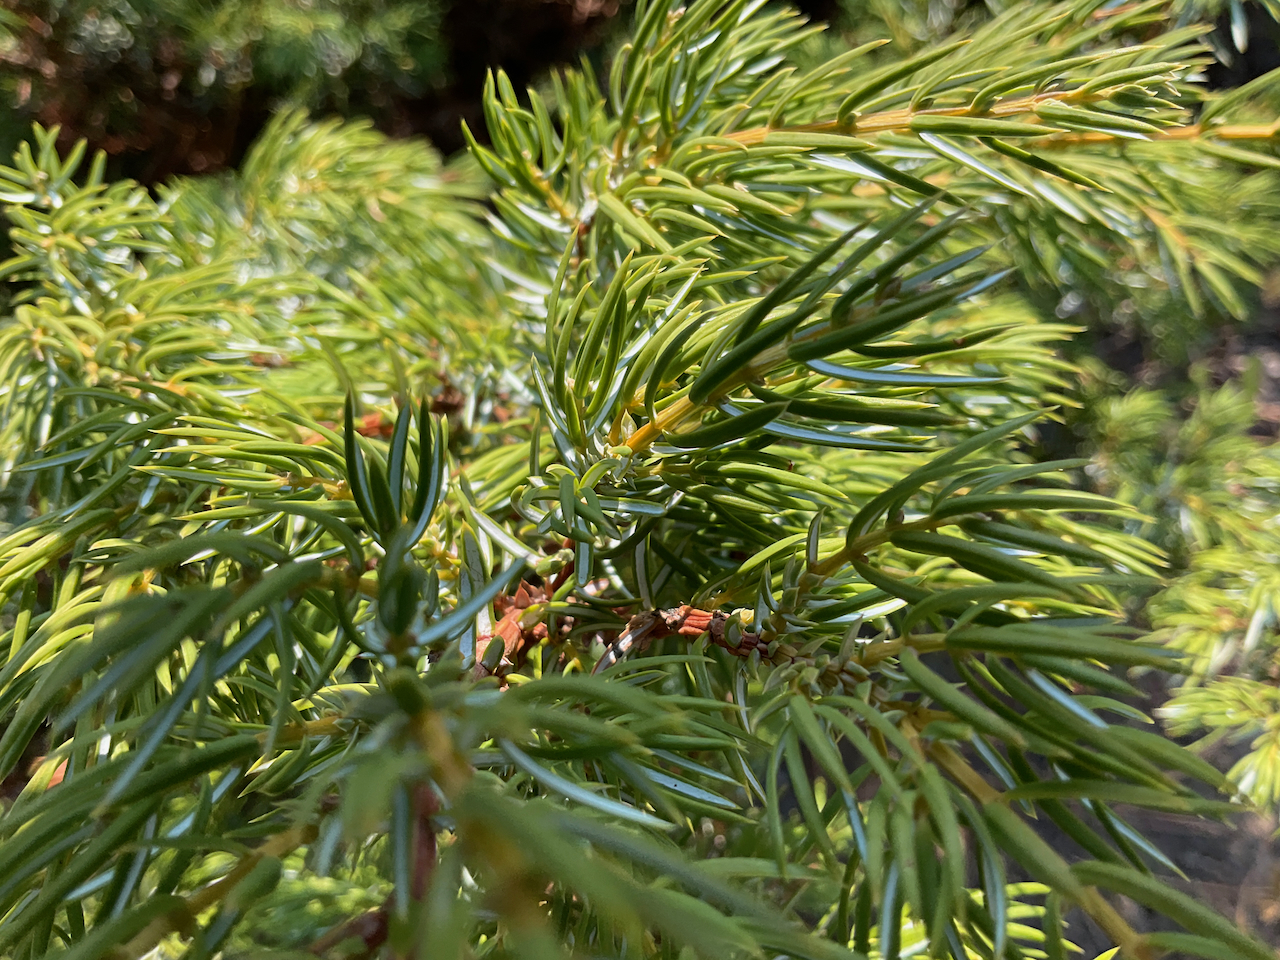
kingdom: Plantae
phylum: Tracheophyta
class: Pinopsida
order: Pinales
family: Cupressaceae
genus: Juniperus
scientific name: Juniperus communis
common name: Common juniper
